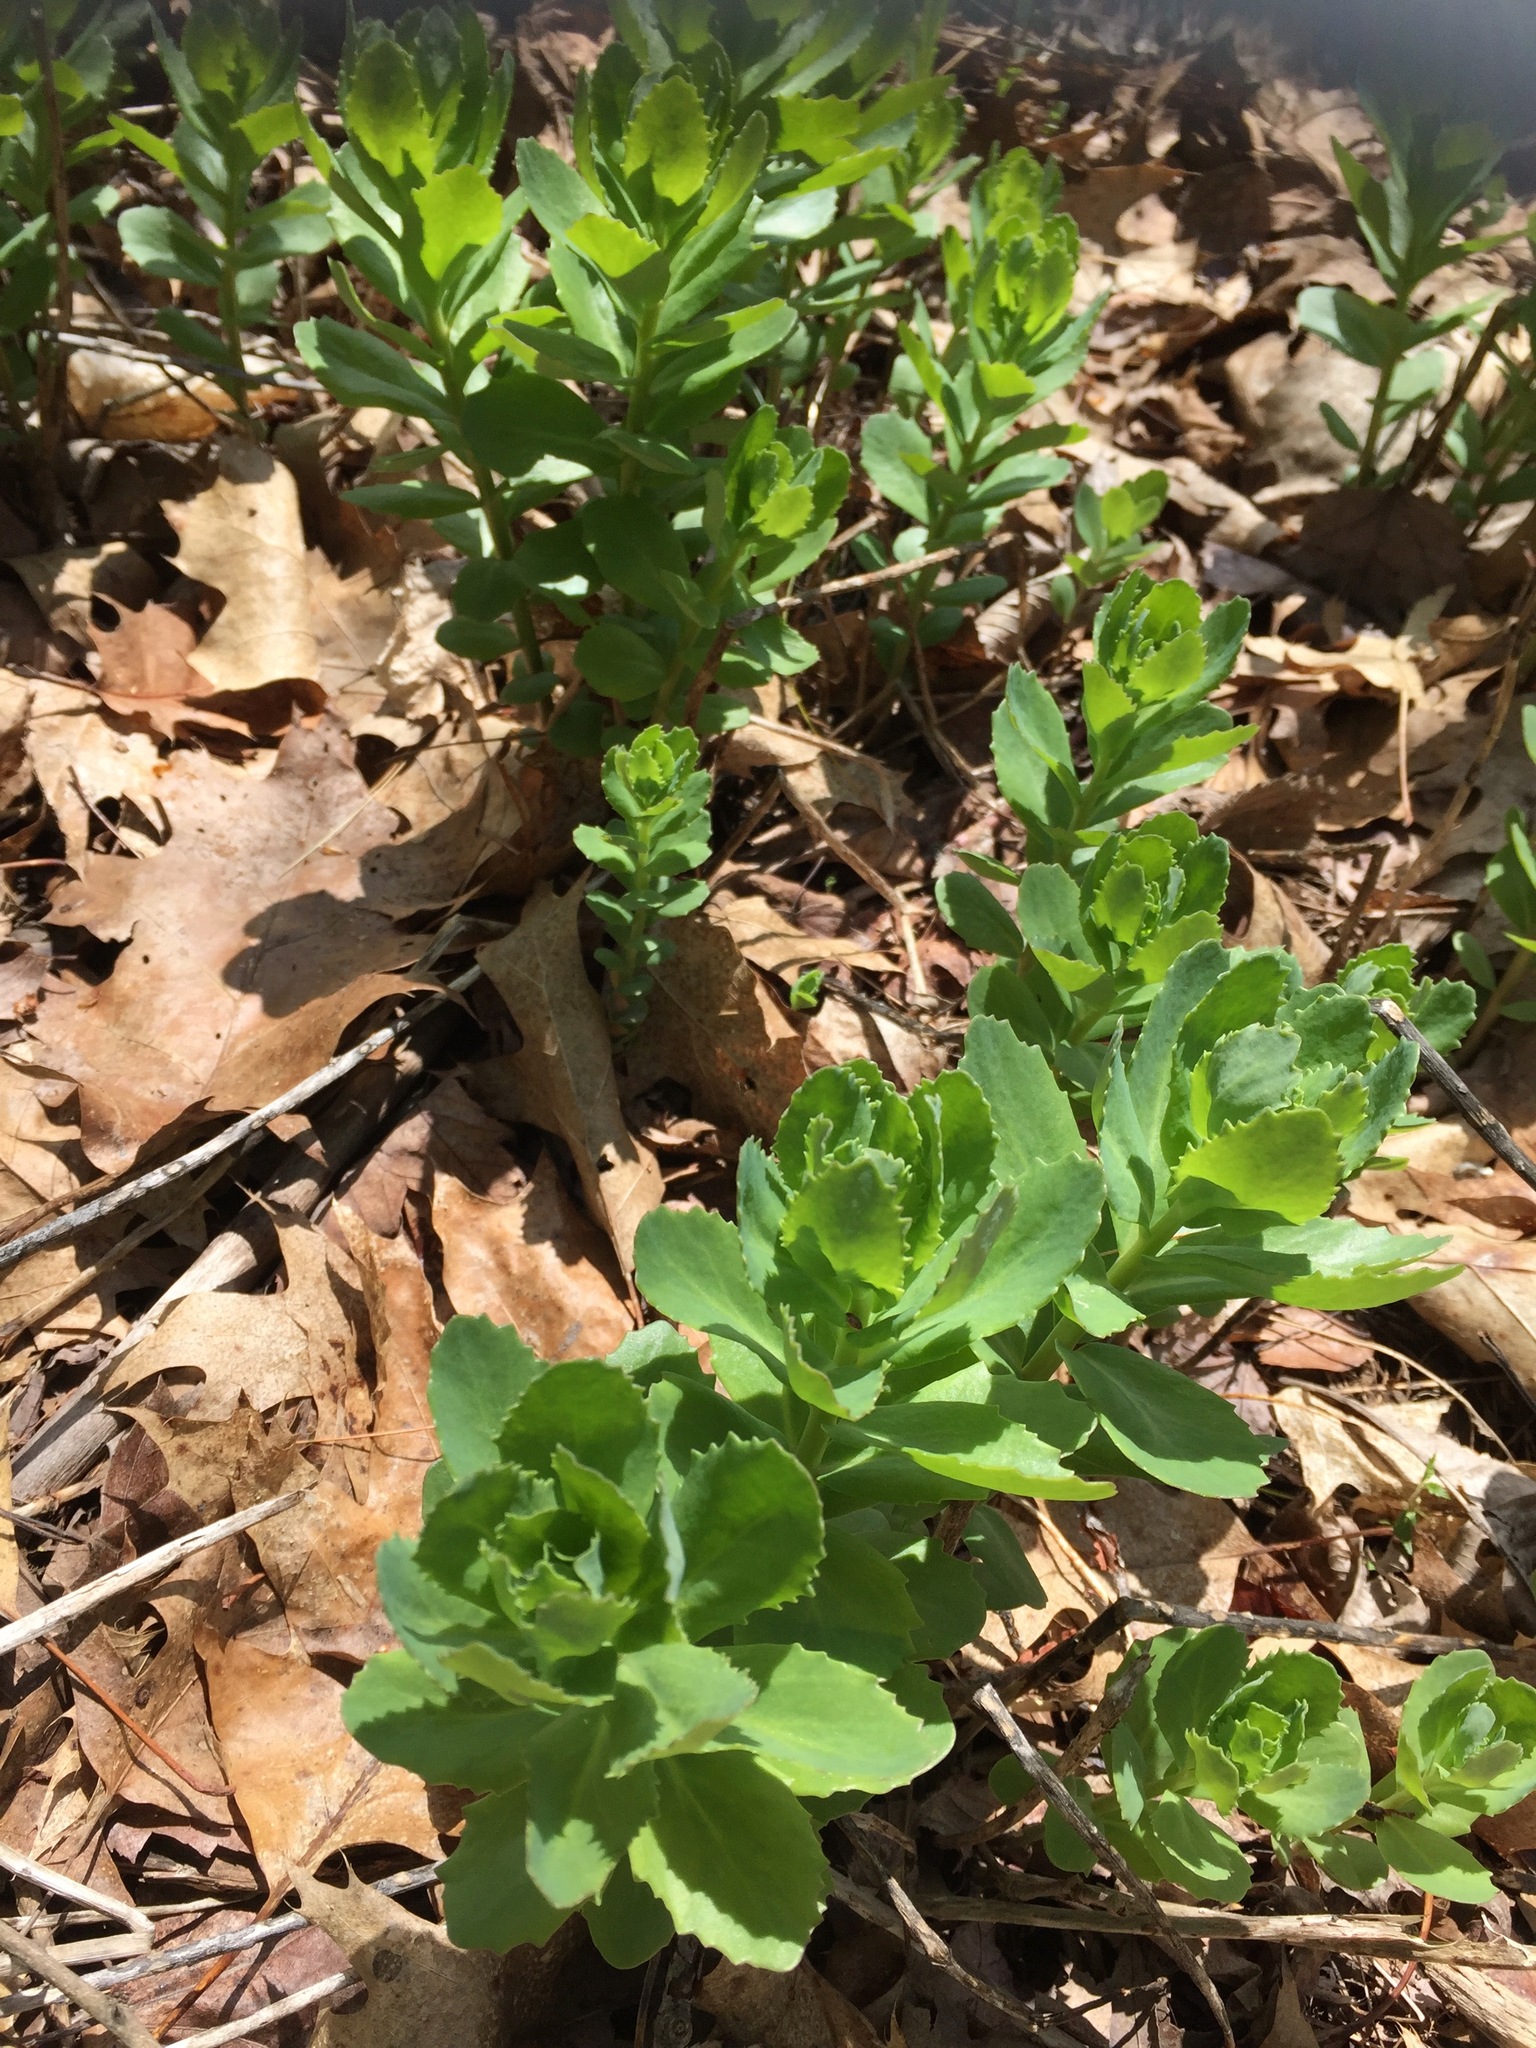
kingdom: Plantae
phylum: Tracheophyta
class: Magnoliopsida
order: Saxifragales
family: Crassulaceae
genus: Hylotelephium
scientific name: Hylotelephium telephium
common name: Live-forever
